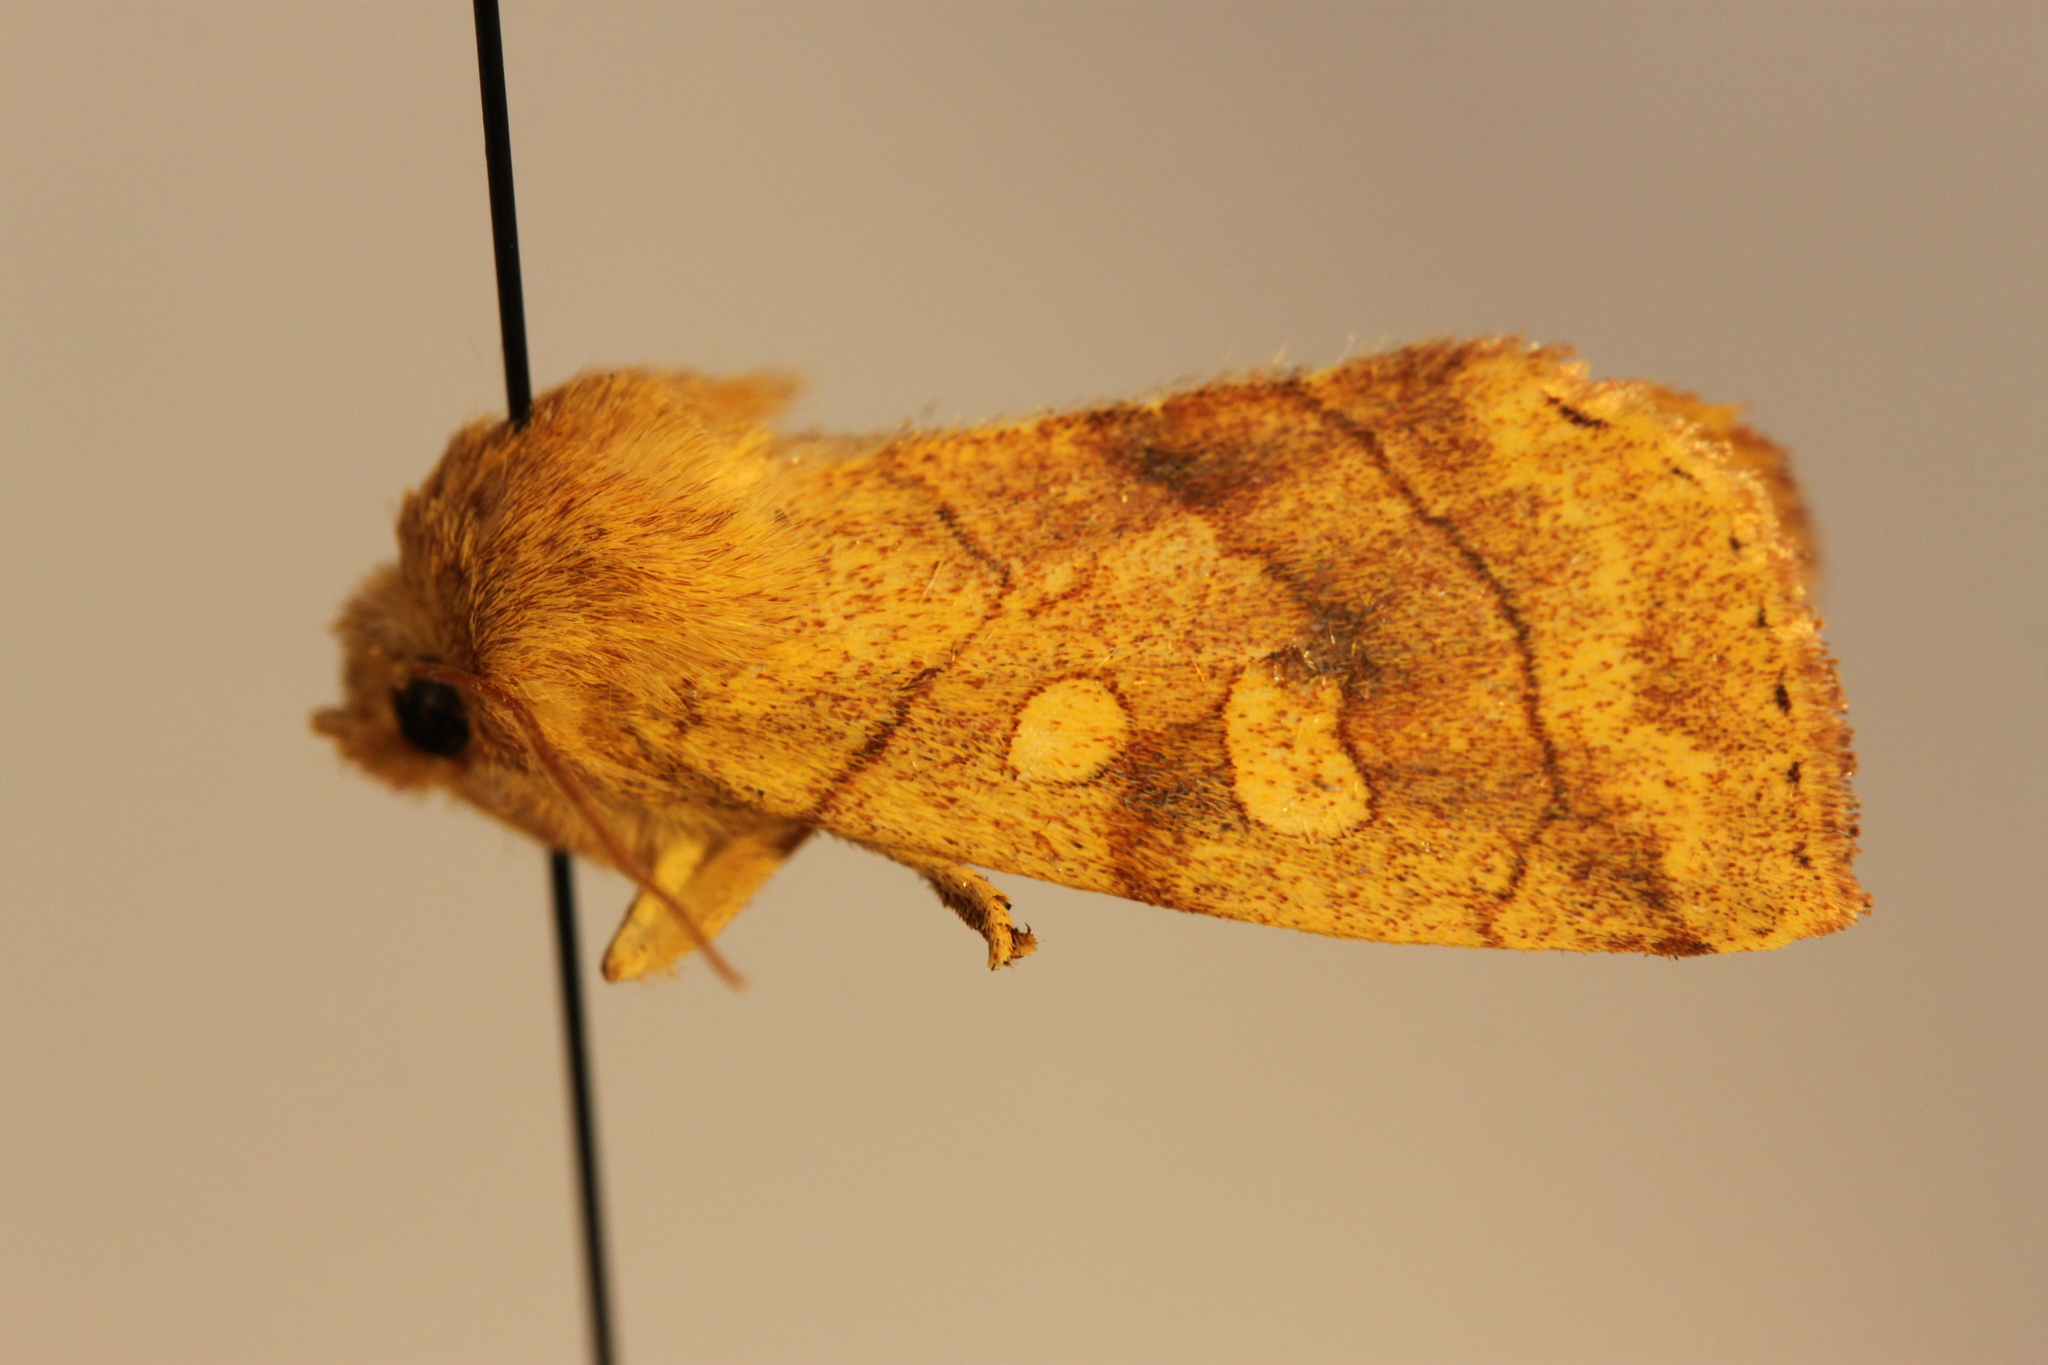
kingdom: Animalia
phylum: Arthropoda
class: Insecta
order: Lepidoptera
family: Noctuidae
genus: Enargia
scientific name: Enargia decolor
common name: Aspen twoleaf tier moth
